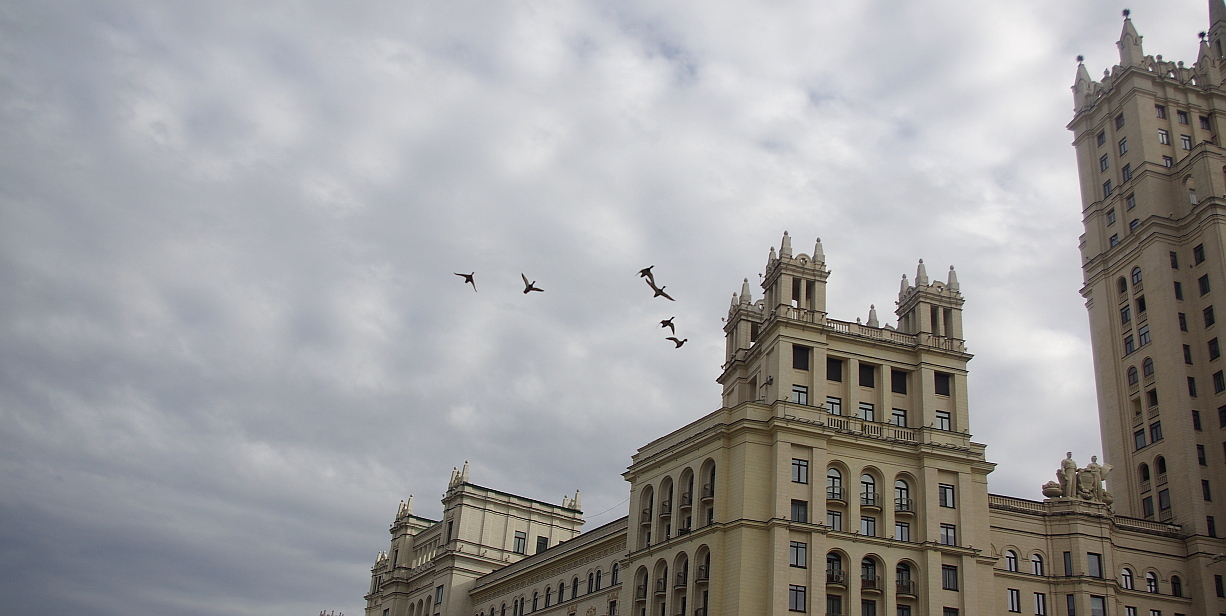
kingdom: Animalia
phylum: Chordata
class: Aves
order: Anseriformes
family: Anatidae
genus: Anas
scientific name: Anas platyrhynchos
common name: Mallard
